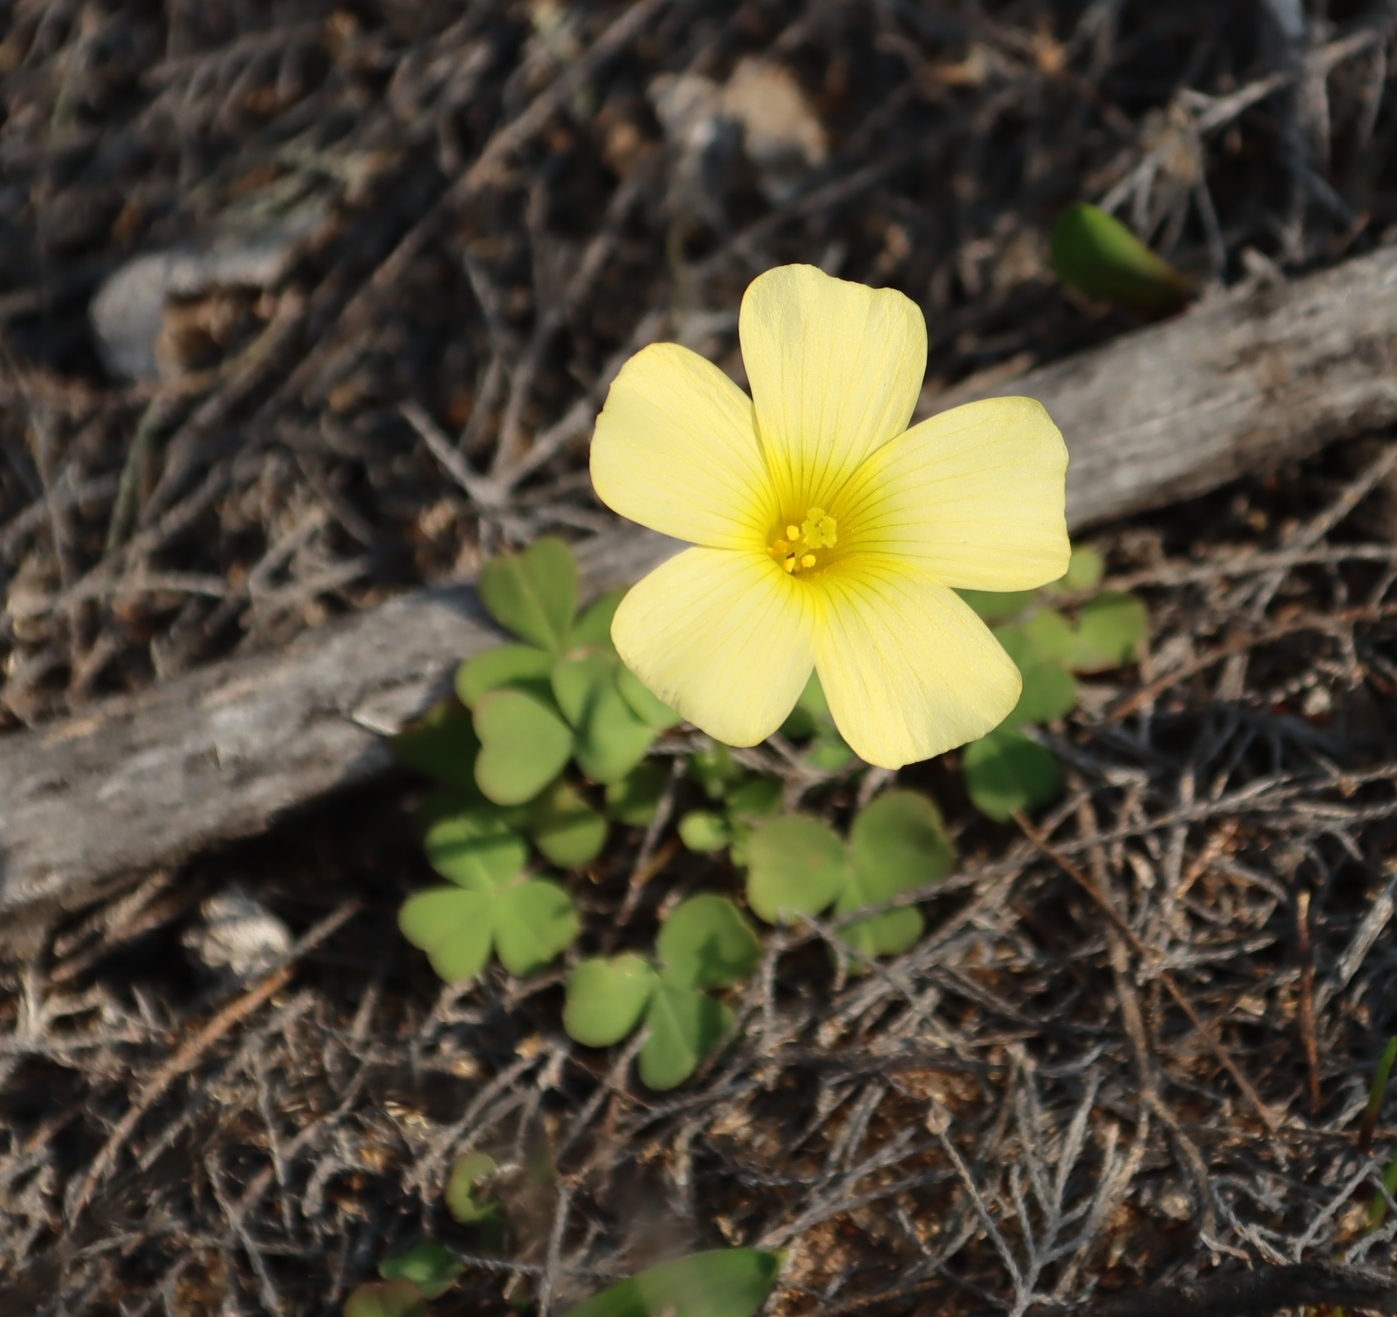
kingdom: Plantae
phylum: Tracheophyta
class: Magnoliopsida
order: Oxalidales
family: Oxalidaceae
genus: Oxalis
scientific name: Oxalis obtusa
